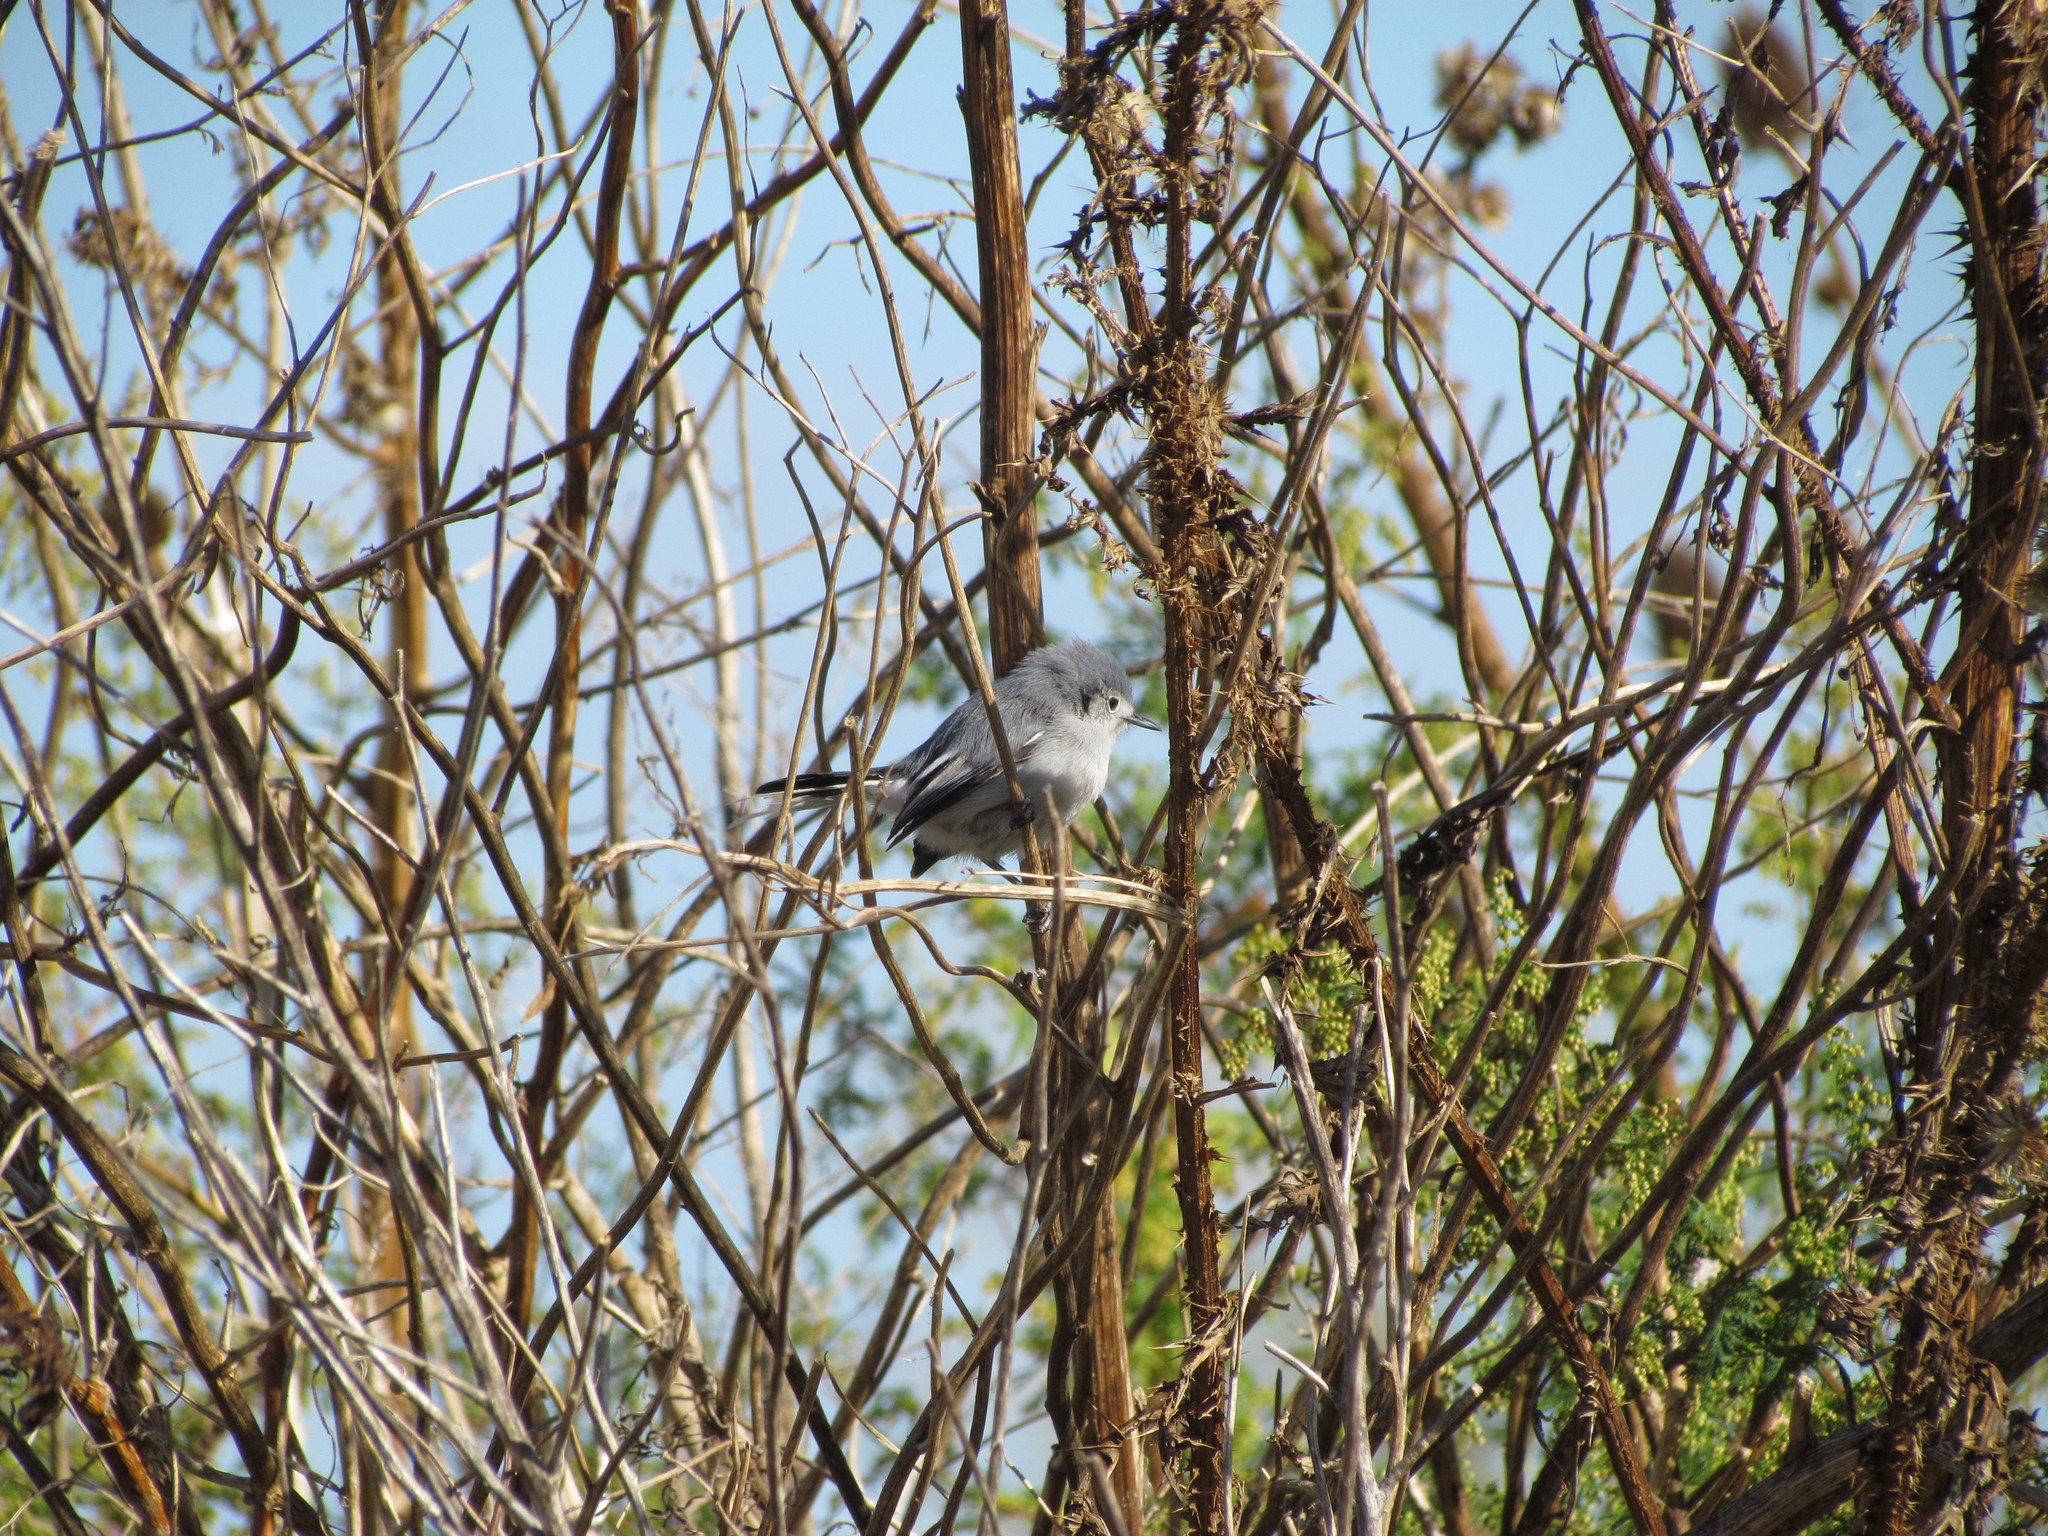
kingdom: Animalia
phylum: Chordata
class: Aves
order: Passeriformes
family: Polioptilidae
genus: Polioptila
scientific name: Polioptila dumicola
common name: Masked gnatcatcher
